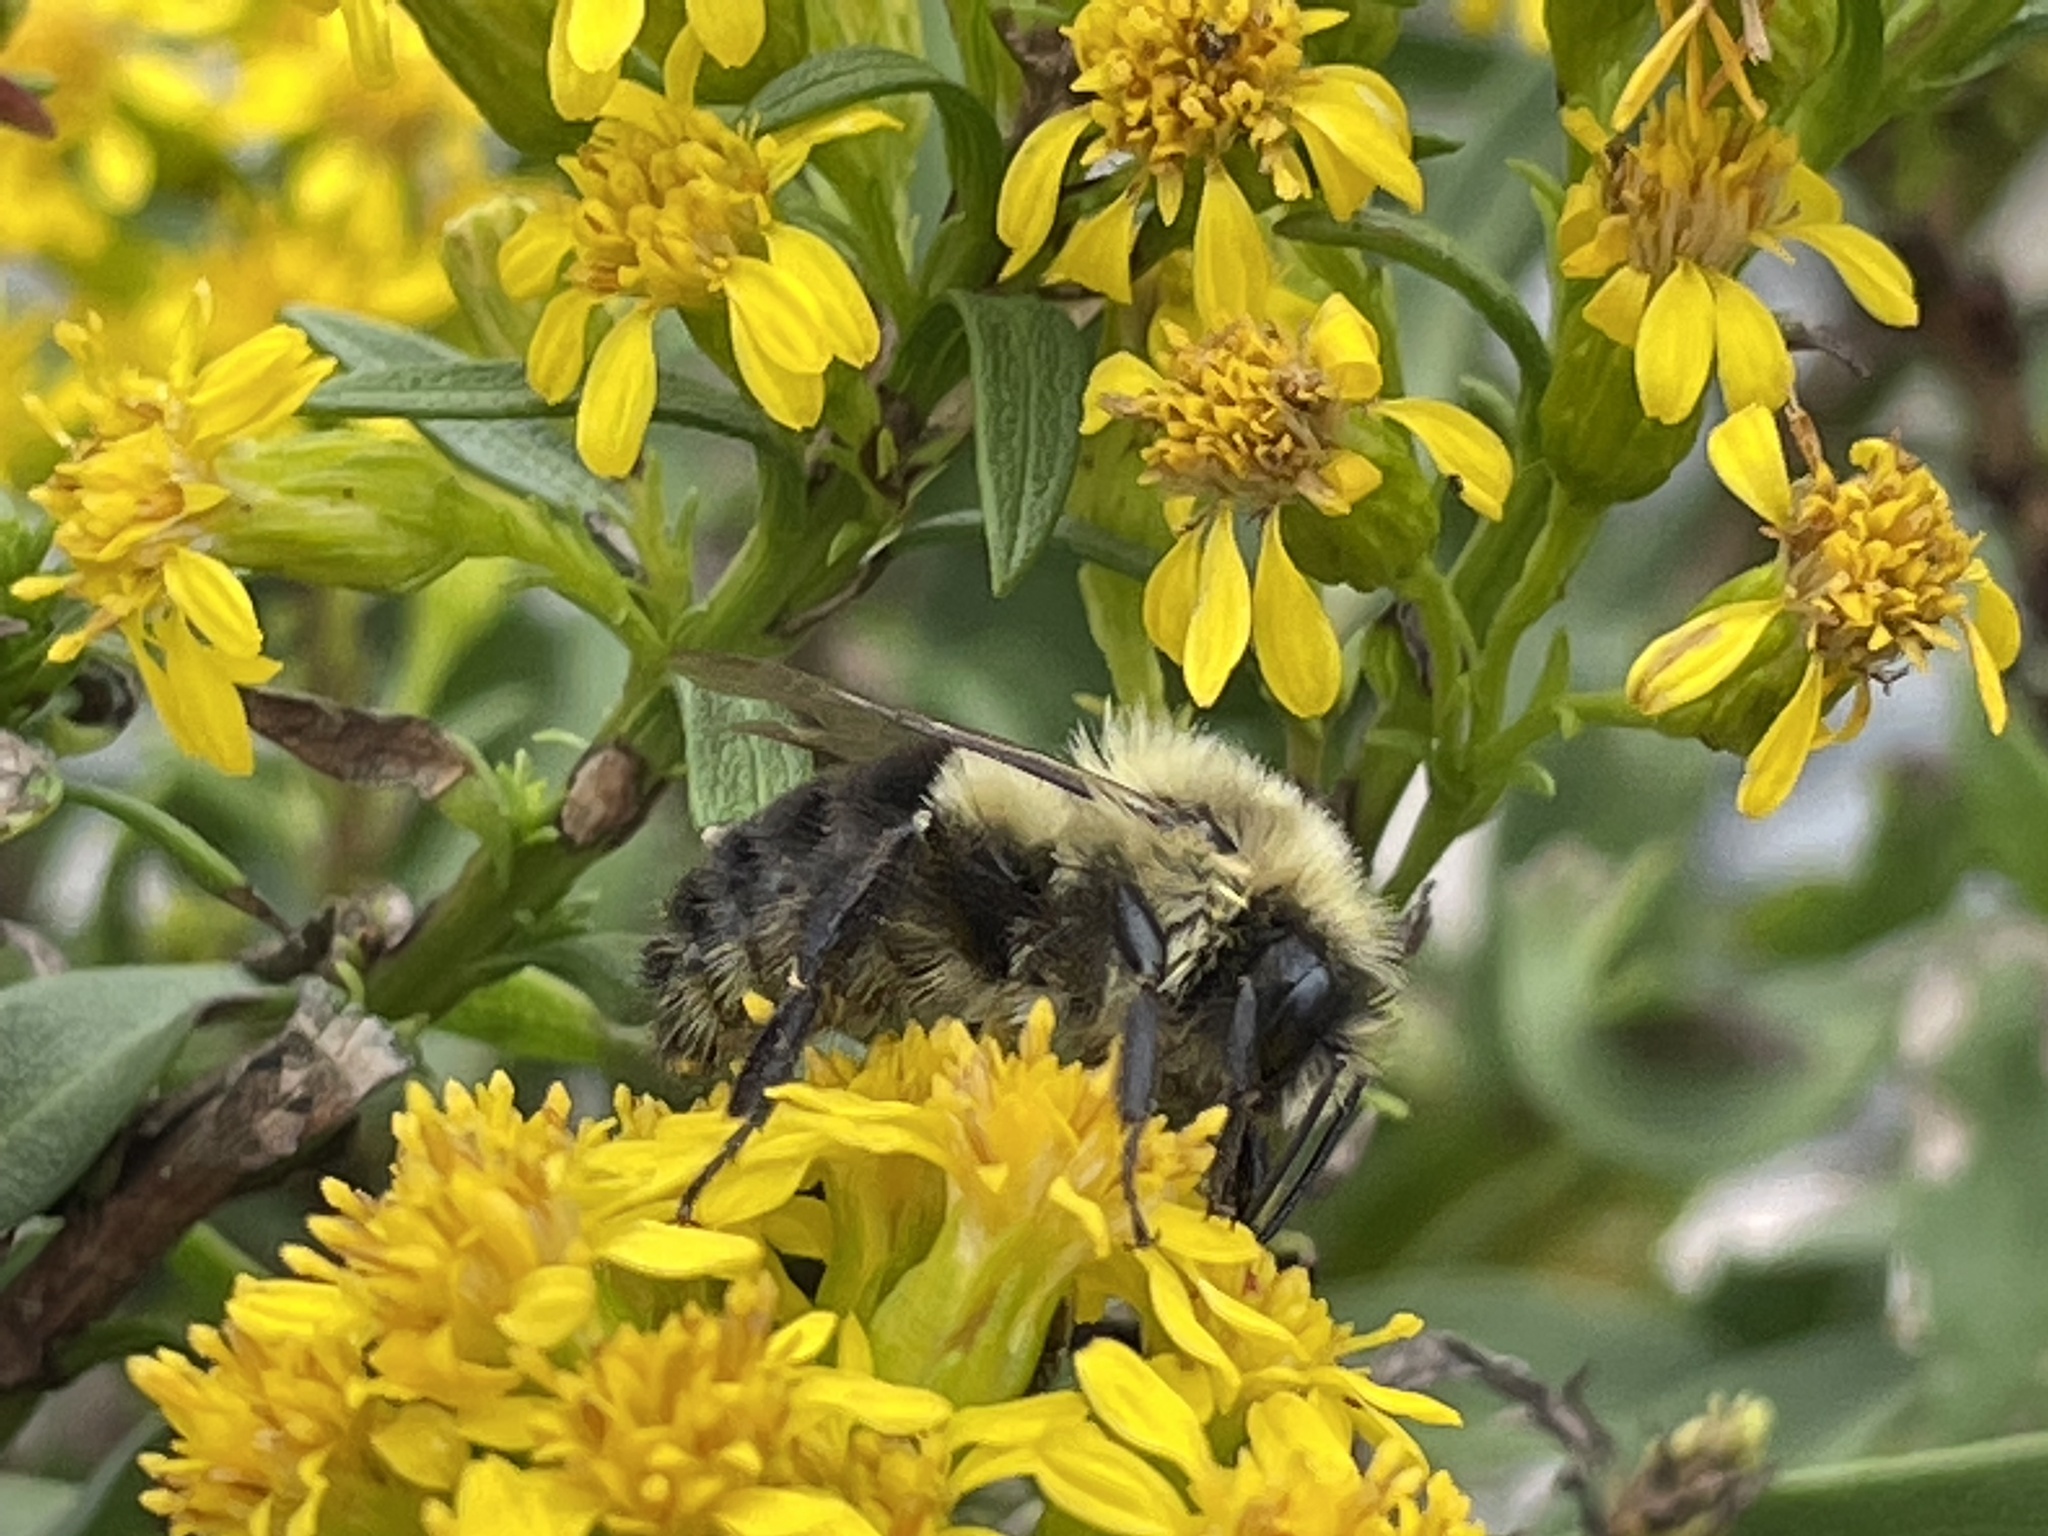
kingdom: Animalia
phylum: Arthropoda
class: Insecta
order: Hymenoptera
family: Apidae
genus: Bombus
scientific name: Bombus impatiens
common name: Common eastern bumble bee
